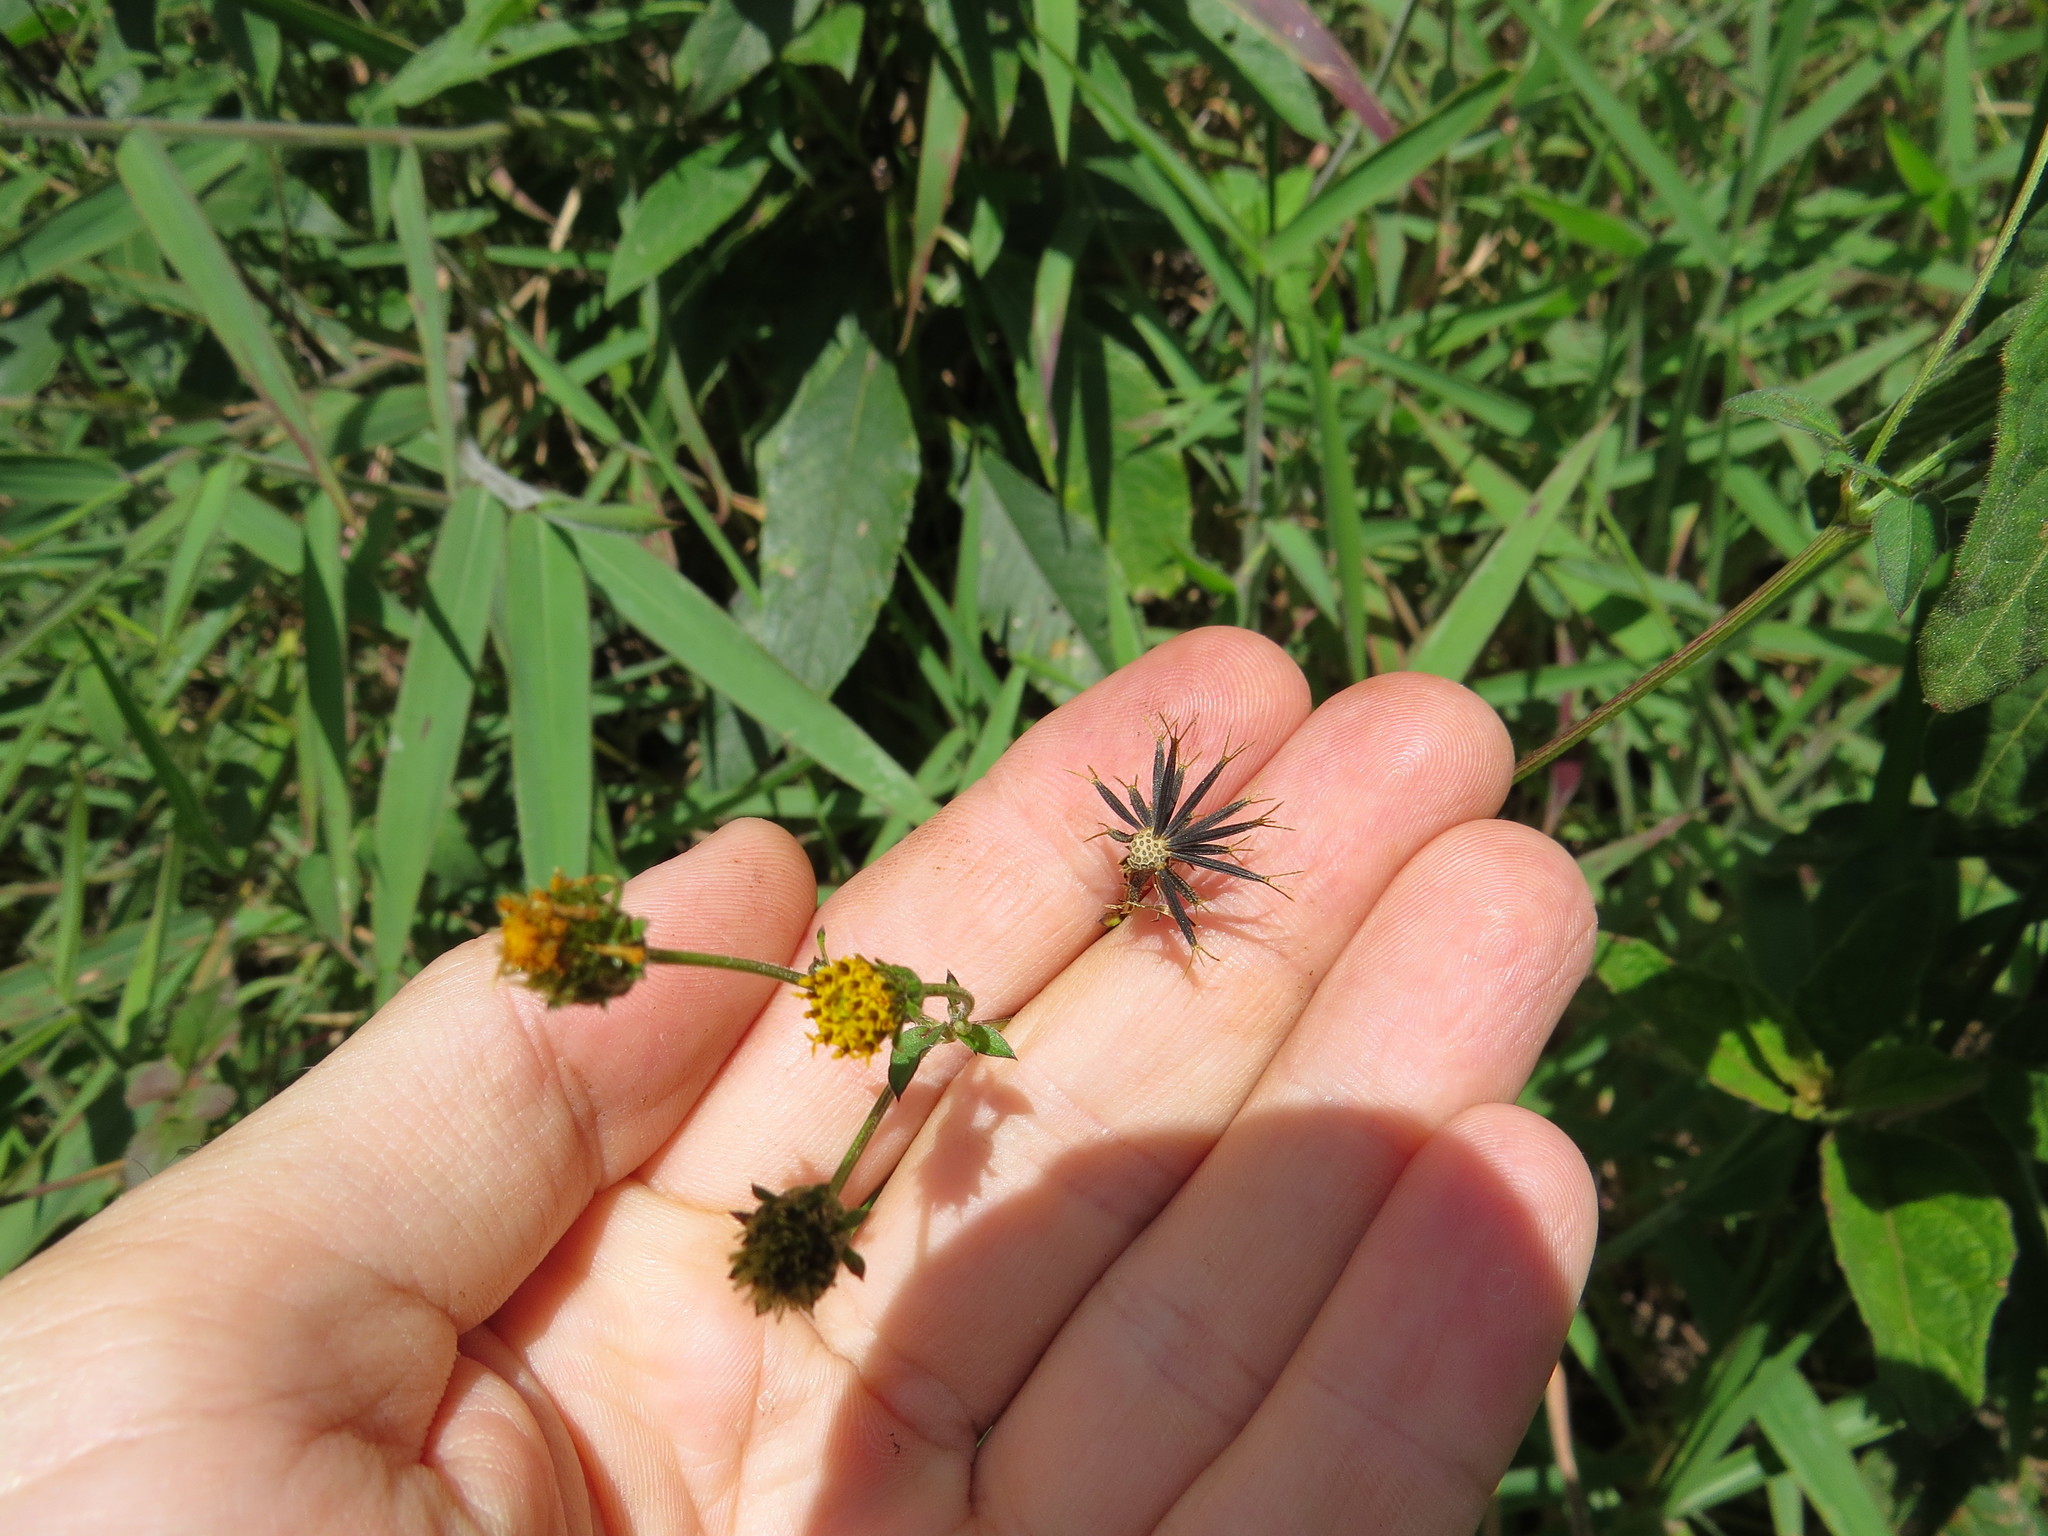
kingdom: Plantae
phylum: Tracheophyta
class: Magnoliopsida
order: Asterales
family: Asteraceae
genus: Bidens
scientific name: Bidens pilosa
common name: Black-jack
